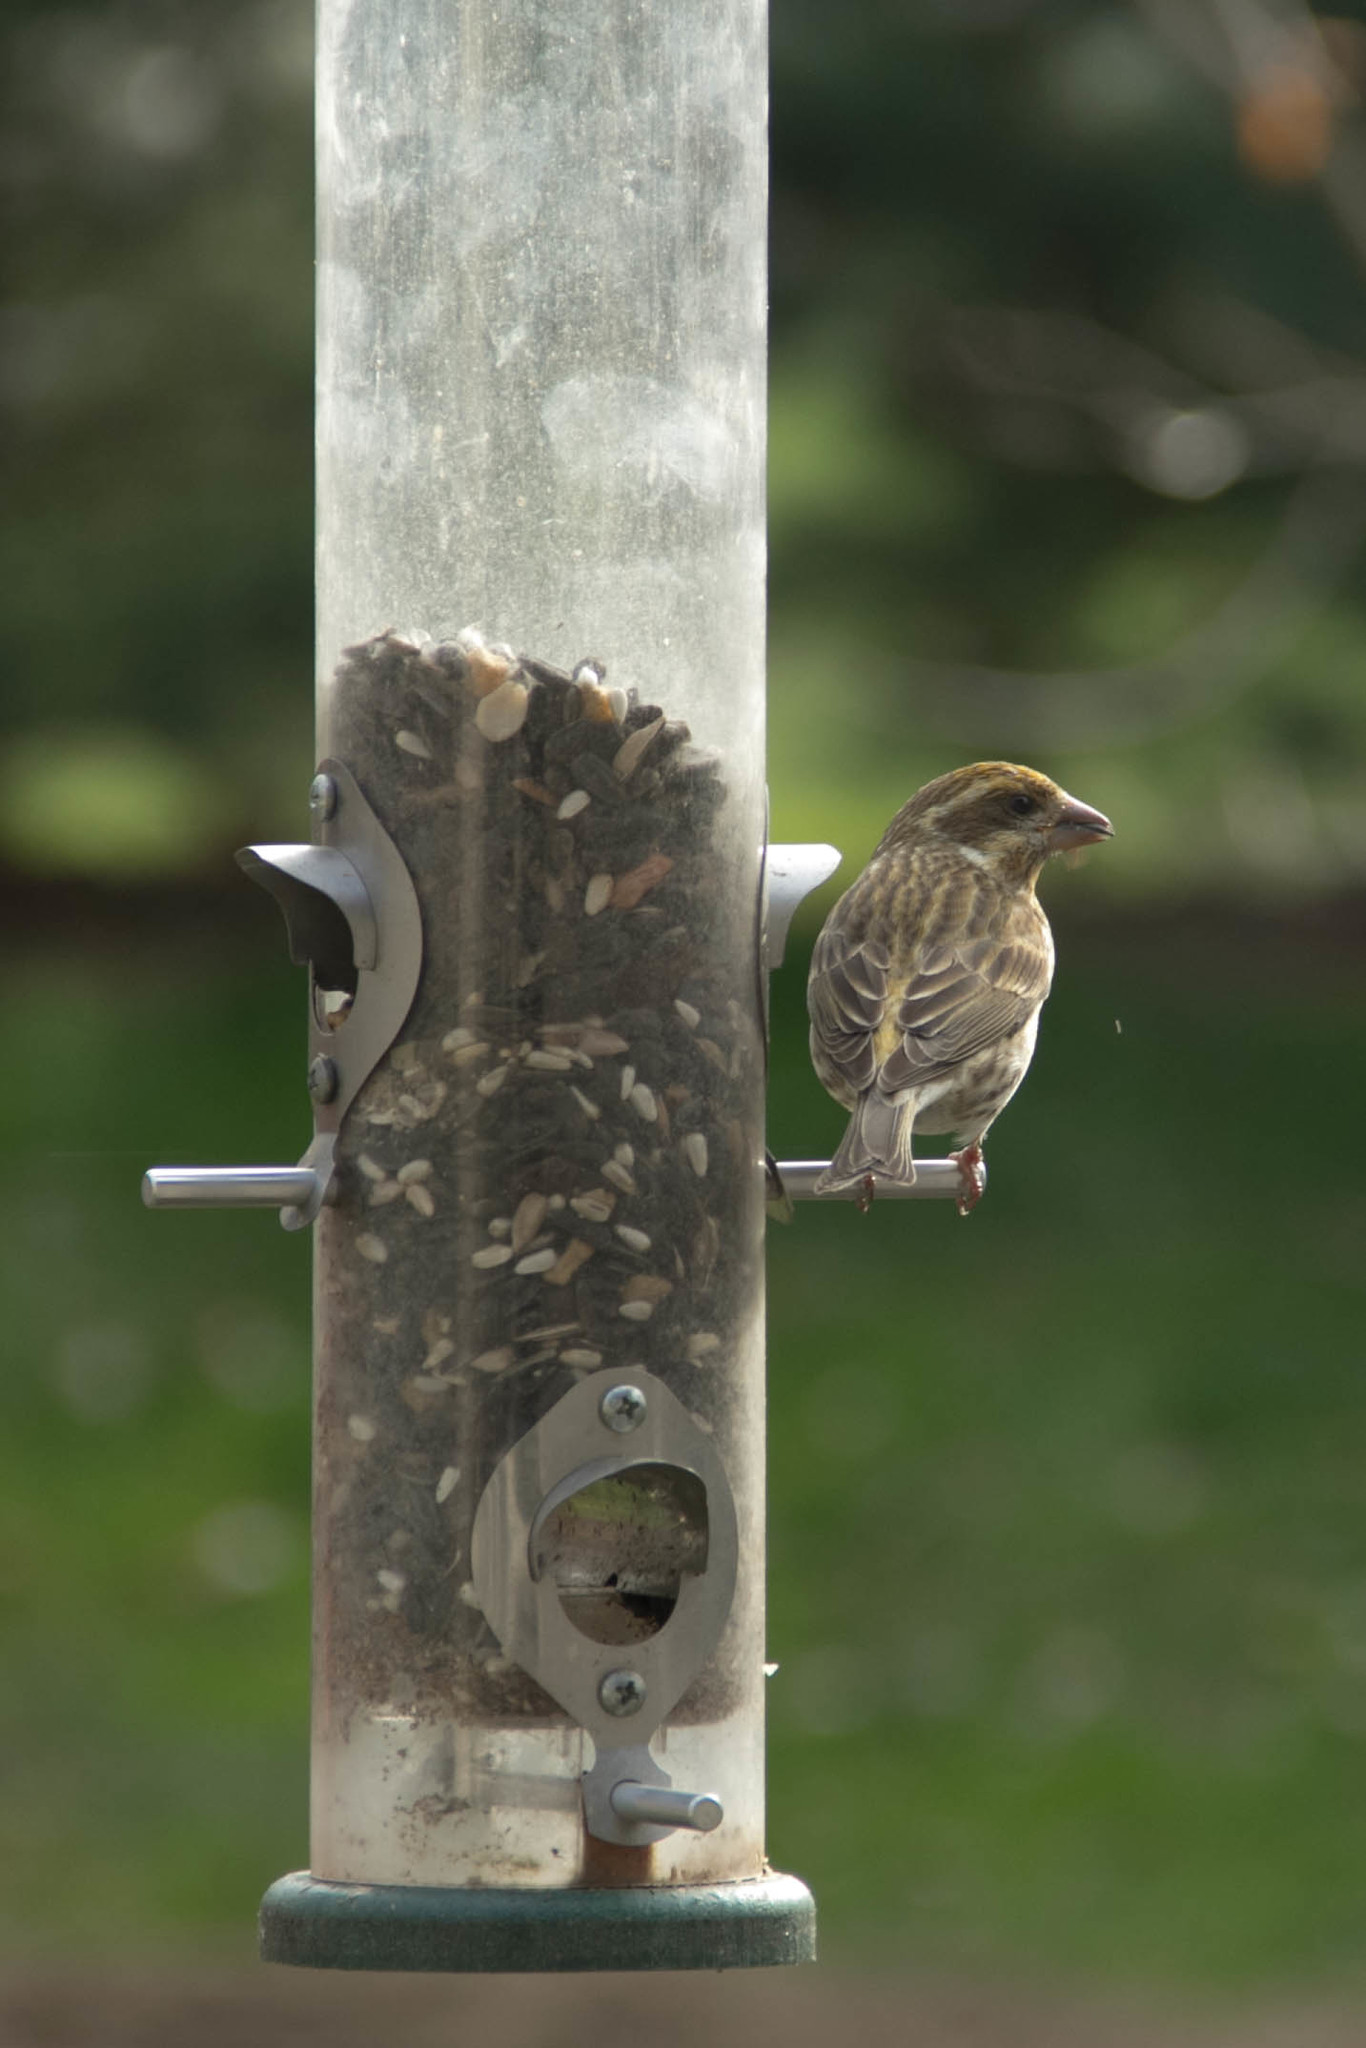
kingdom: Animalia
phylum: Chordata
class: Aves
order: Passeriformes
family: Fringillidae
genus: Haemorhous
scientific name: Haemorhous purpureus
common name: Purple finch
